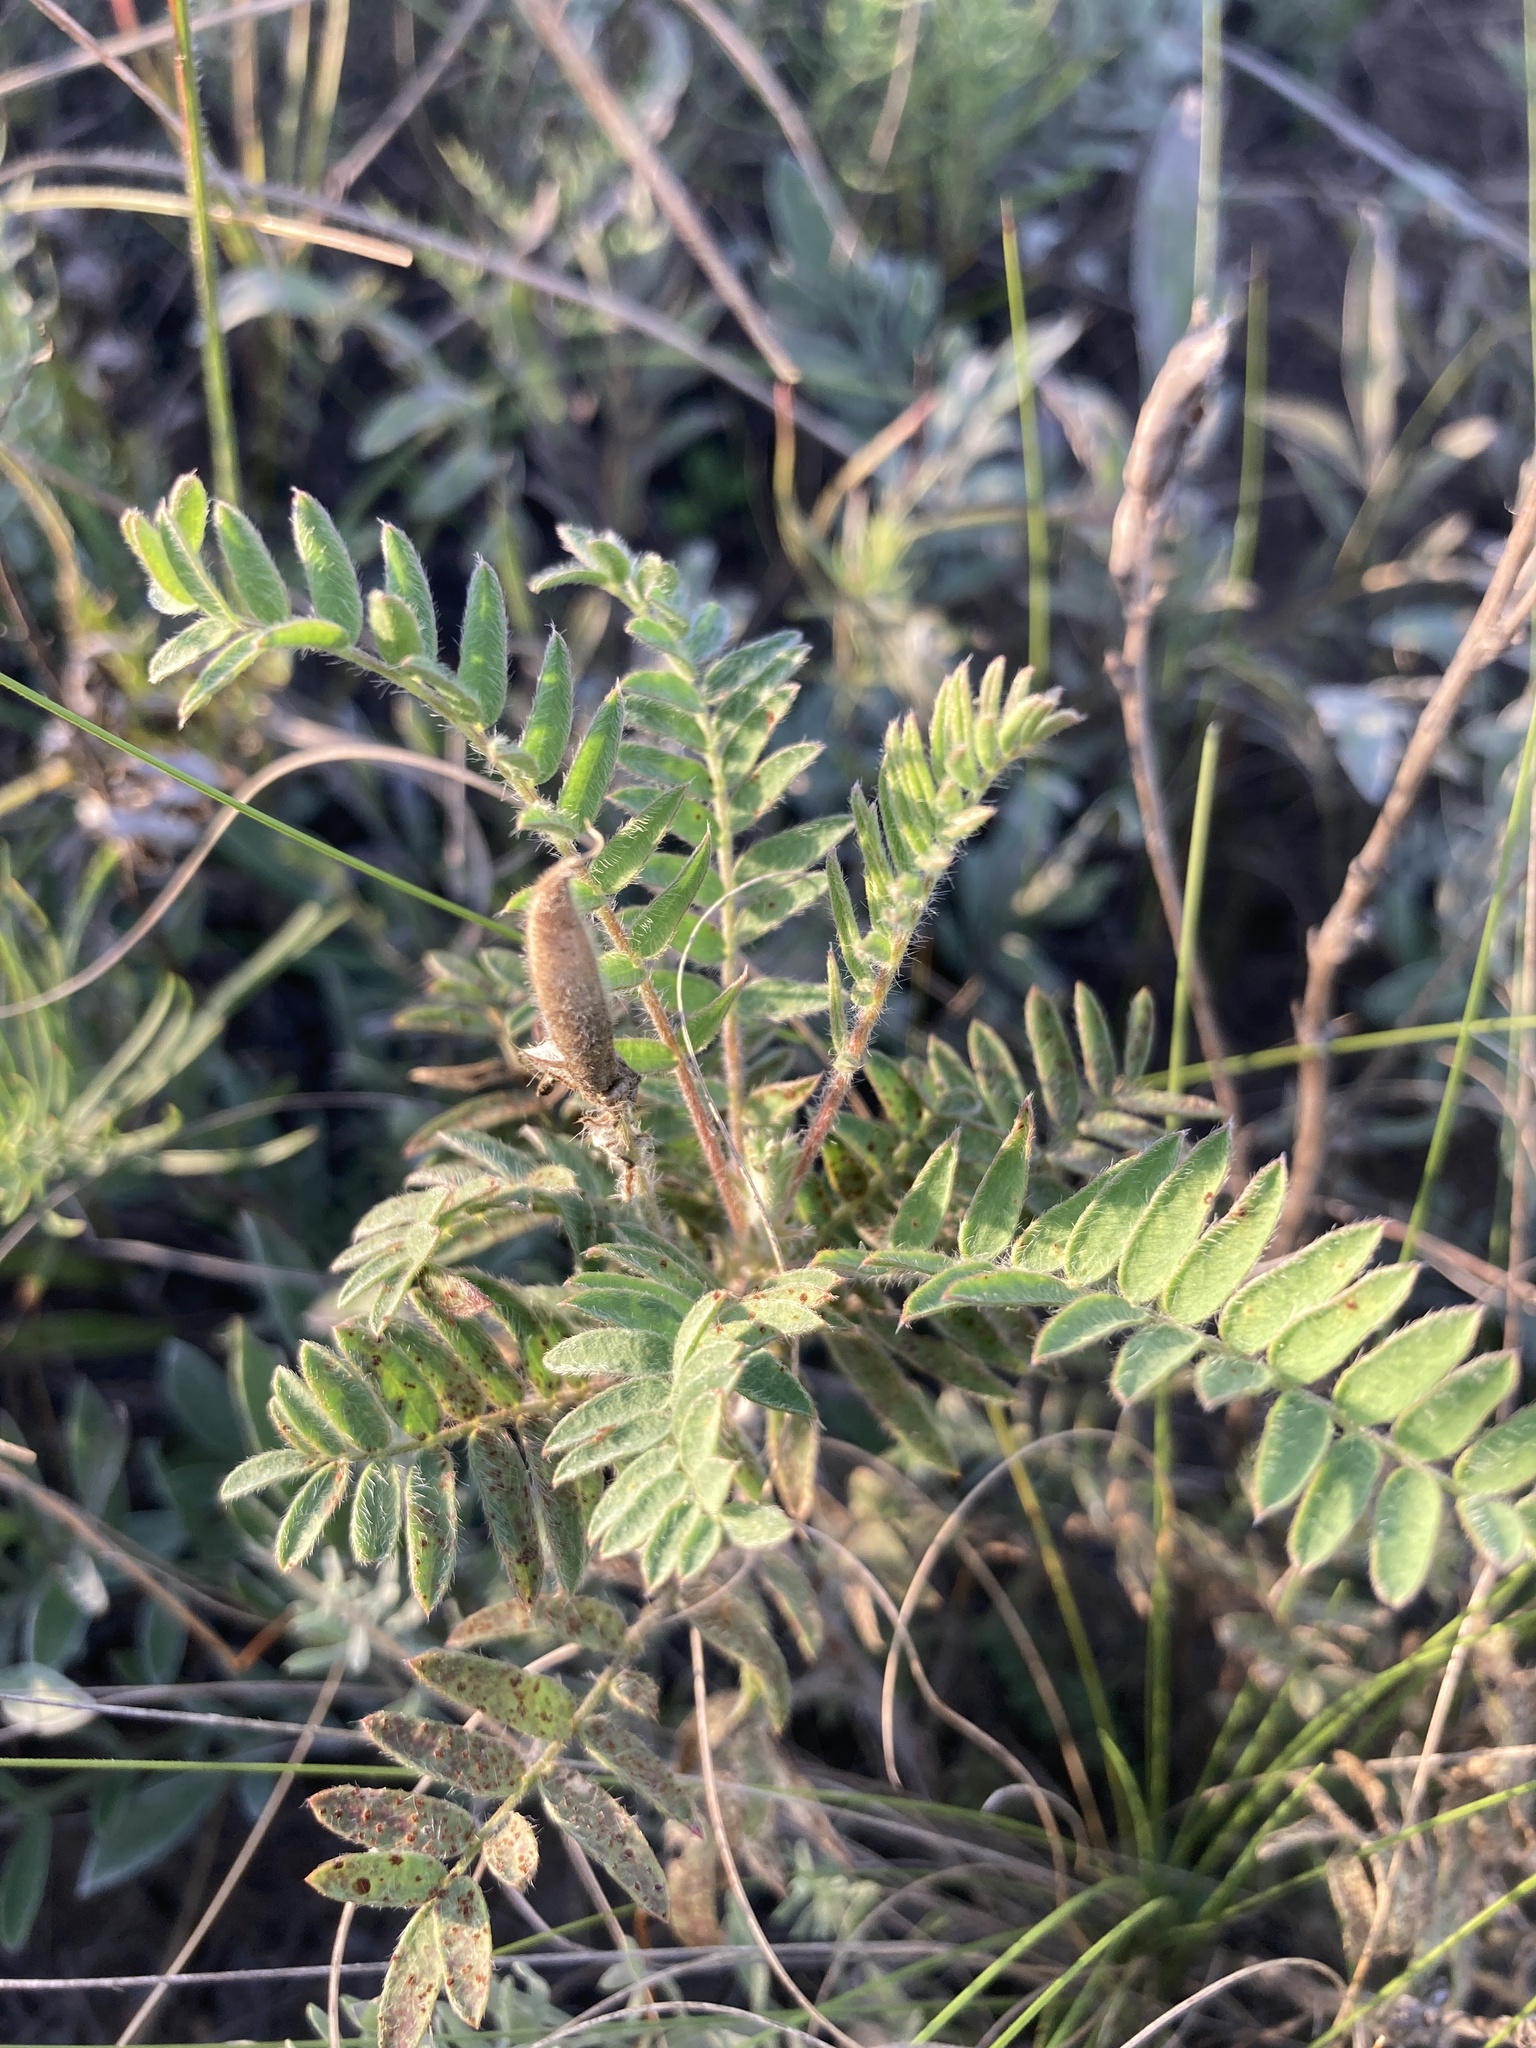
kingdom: Plantae
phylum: Tracheophyta
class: Magnoliopsida
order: Fabales
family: Fabaceae
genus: Oxytropis
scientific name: Oxytropis pilosa
